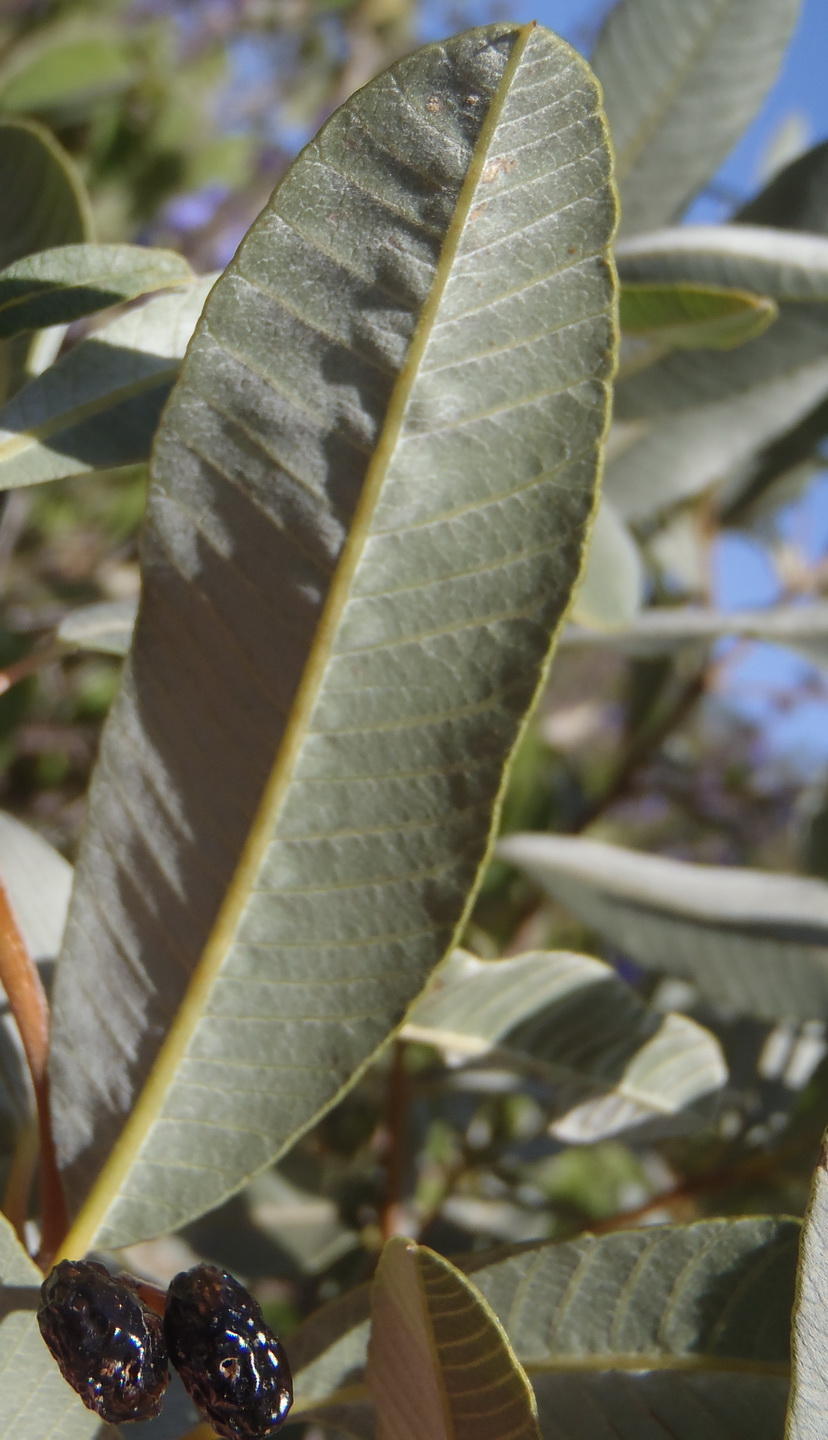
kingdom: Plantae
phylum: Tracheophyta
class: Magnoliopsida
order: Sapindales
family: Anacardiaceae
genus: Ozoroa
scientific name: Ozoroa paniculosa
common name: Bushveld ozoroa
